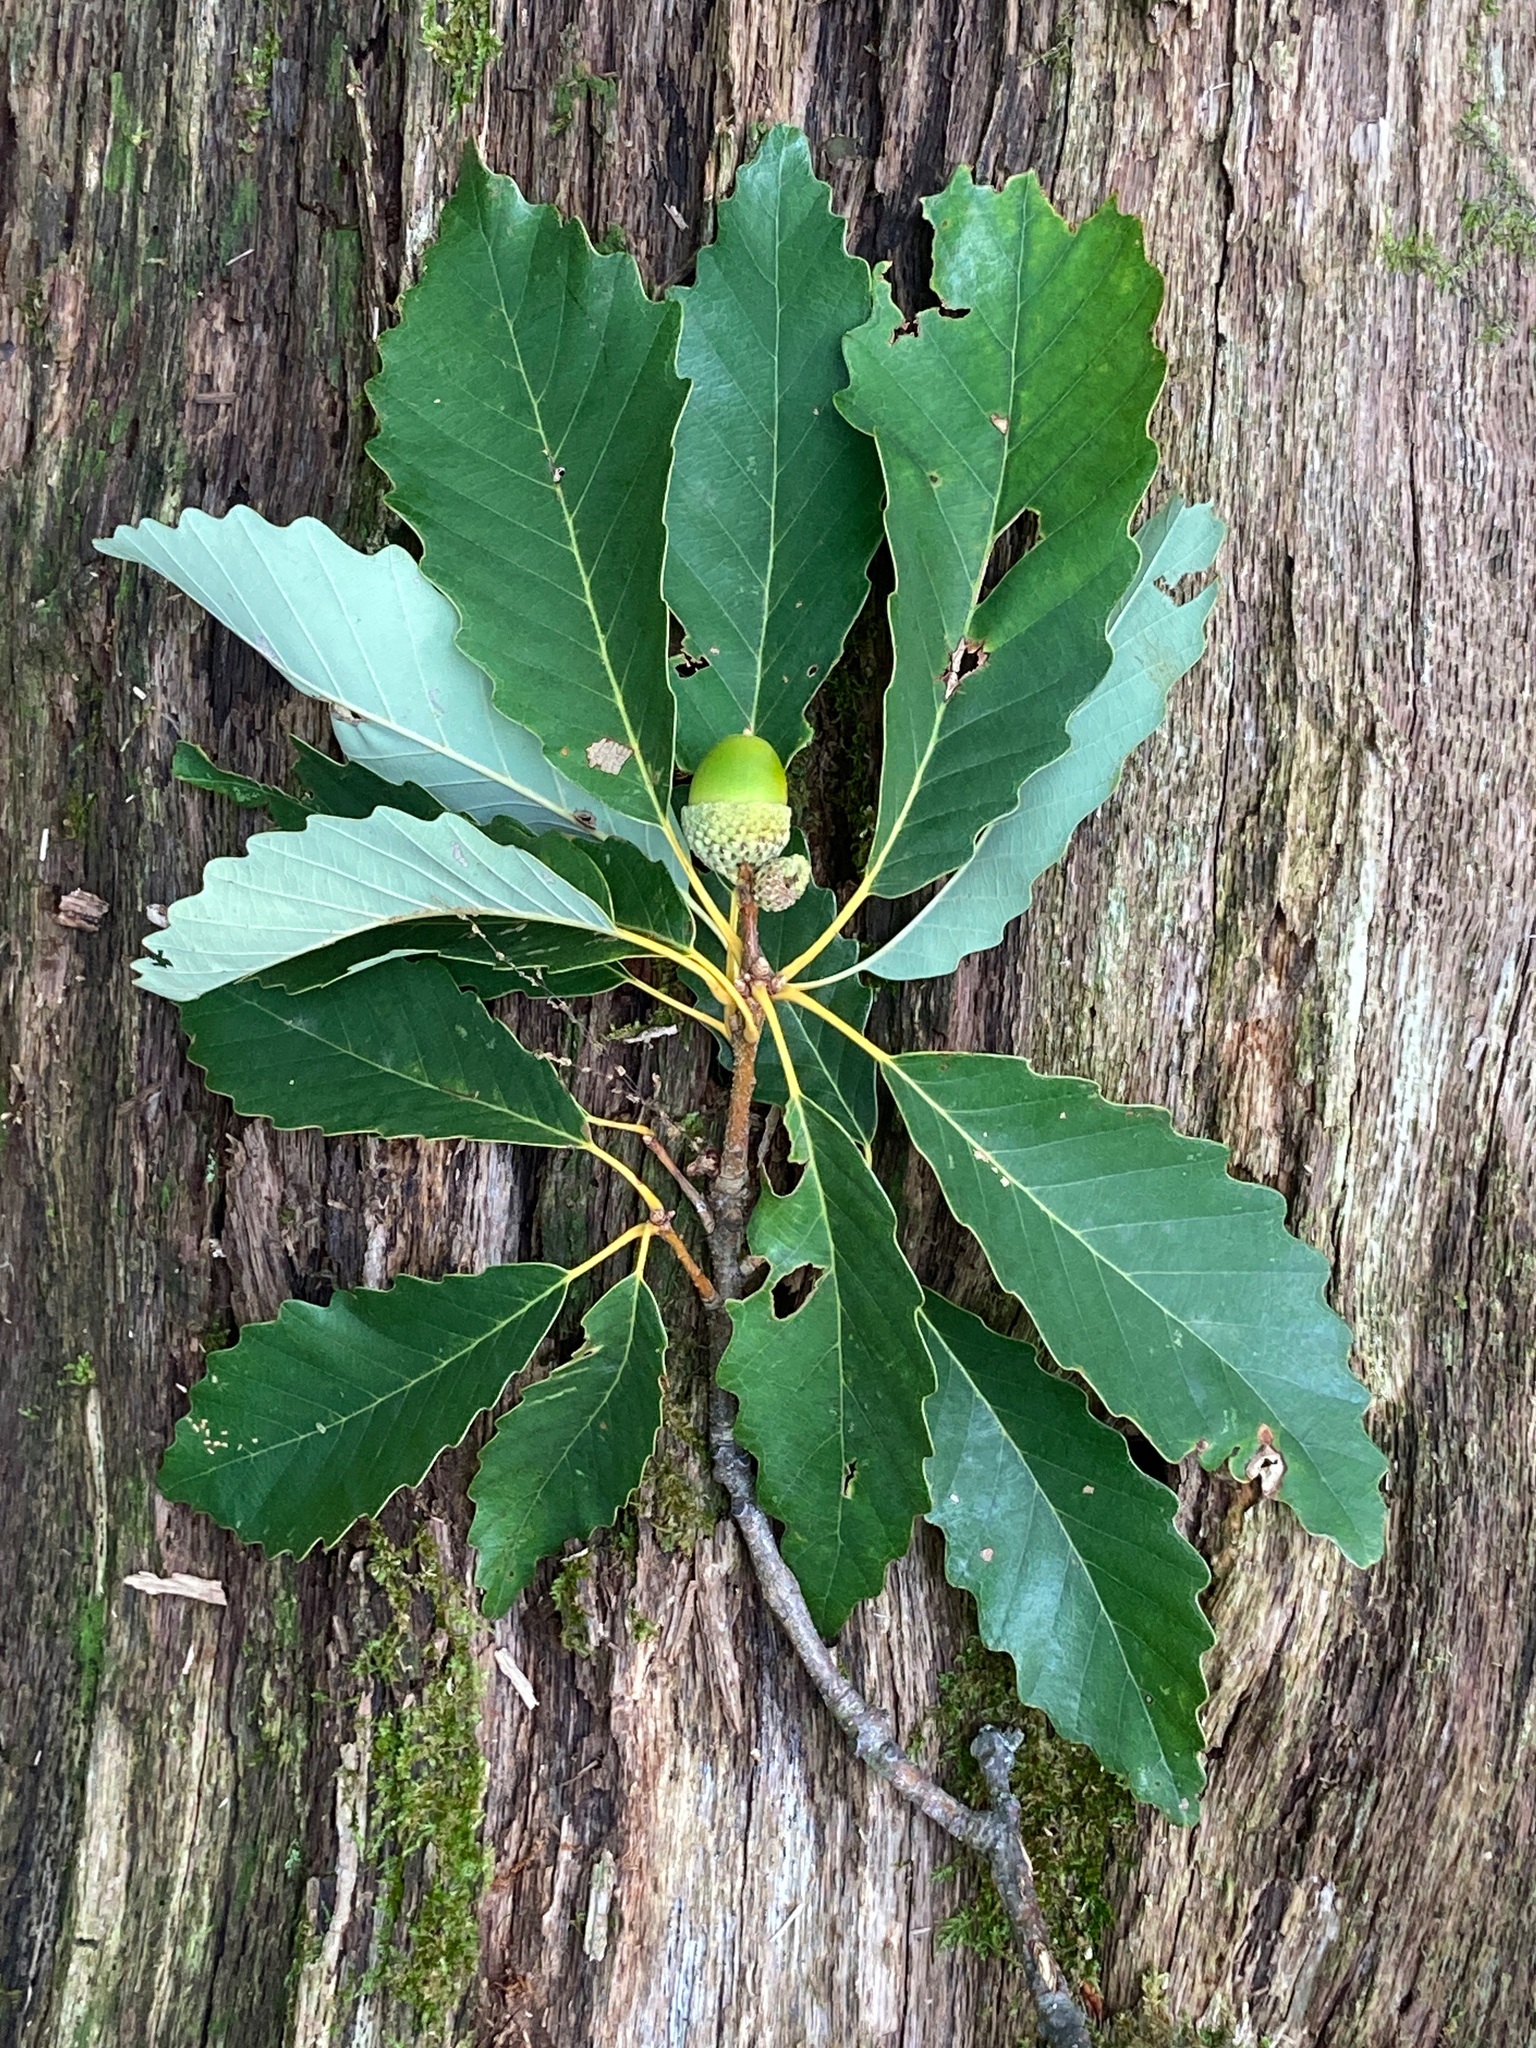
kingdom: Plantae
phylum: Tracheophyta
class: Magnoliopsida
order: Fagales
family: Fagaceae
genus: Quercus
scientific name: Quercus montana
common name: Chestnut oak
